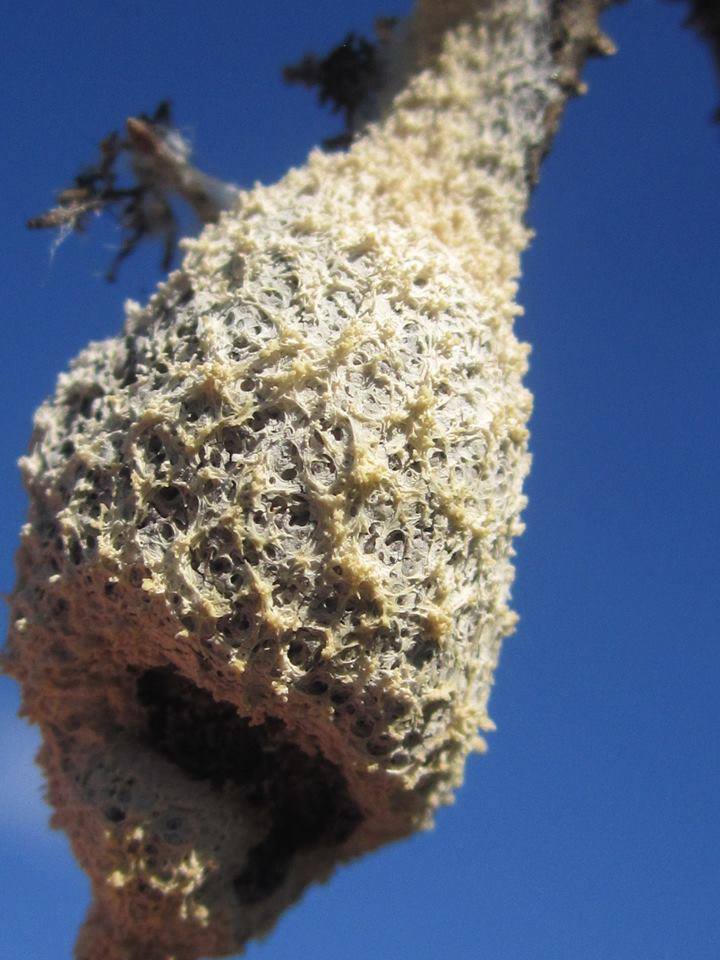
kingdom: Protozoa
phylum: Mycetozoa
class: Myxomycetes
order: Physarales
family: Physaraceae
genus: Didymium
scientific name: Didymium
